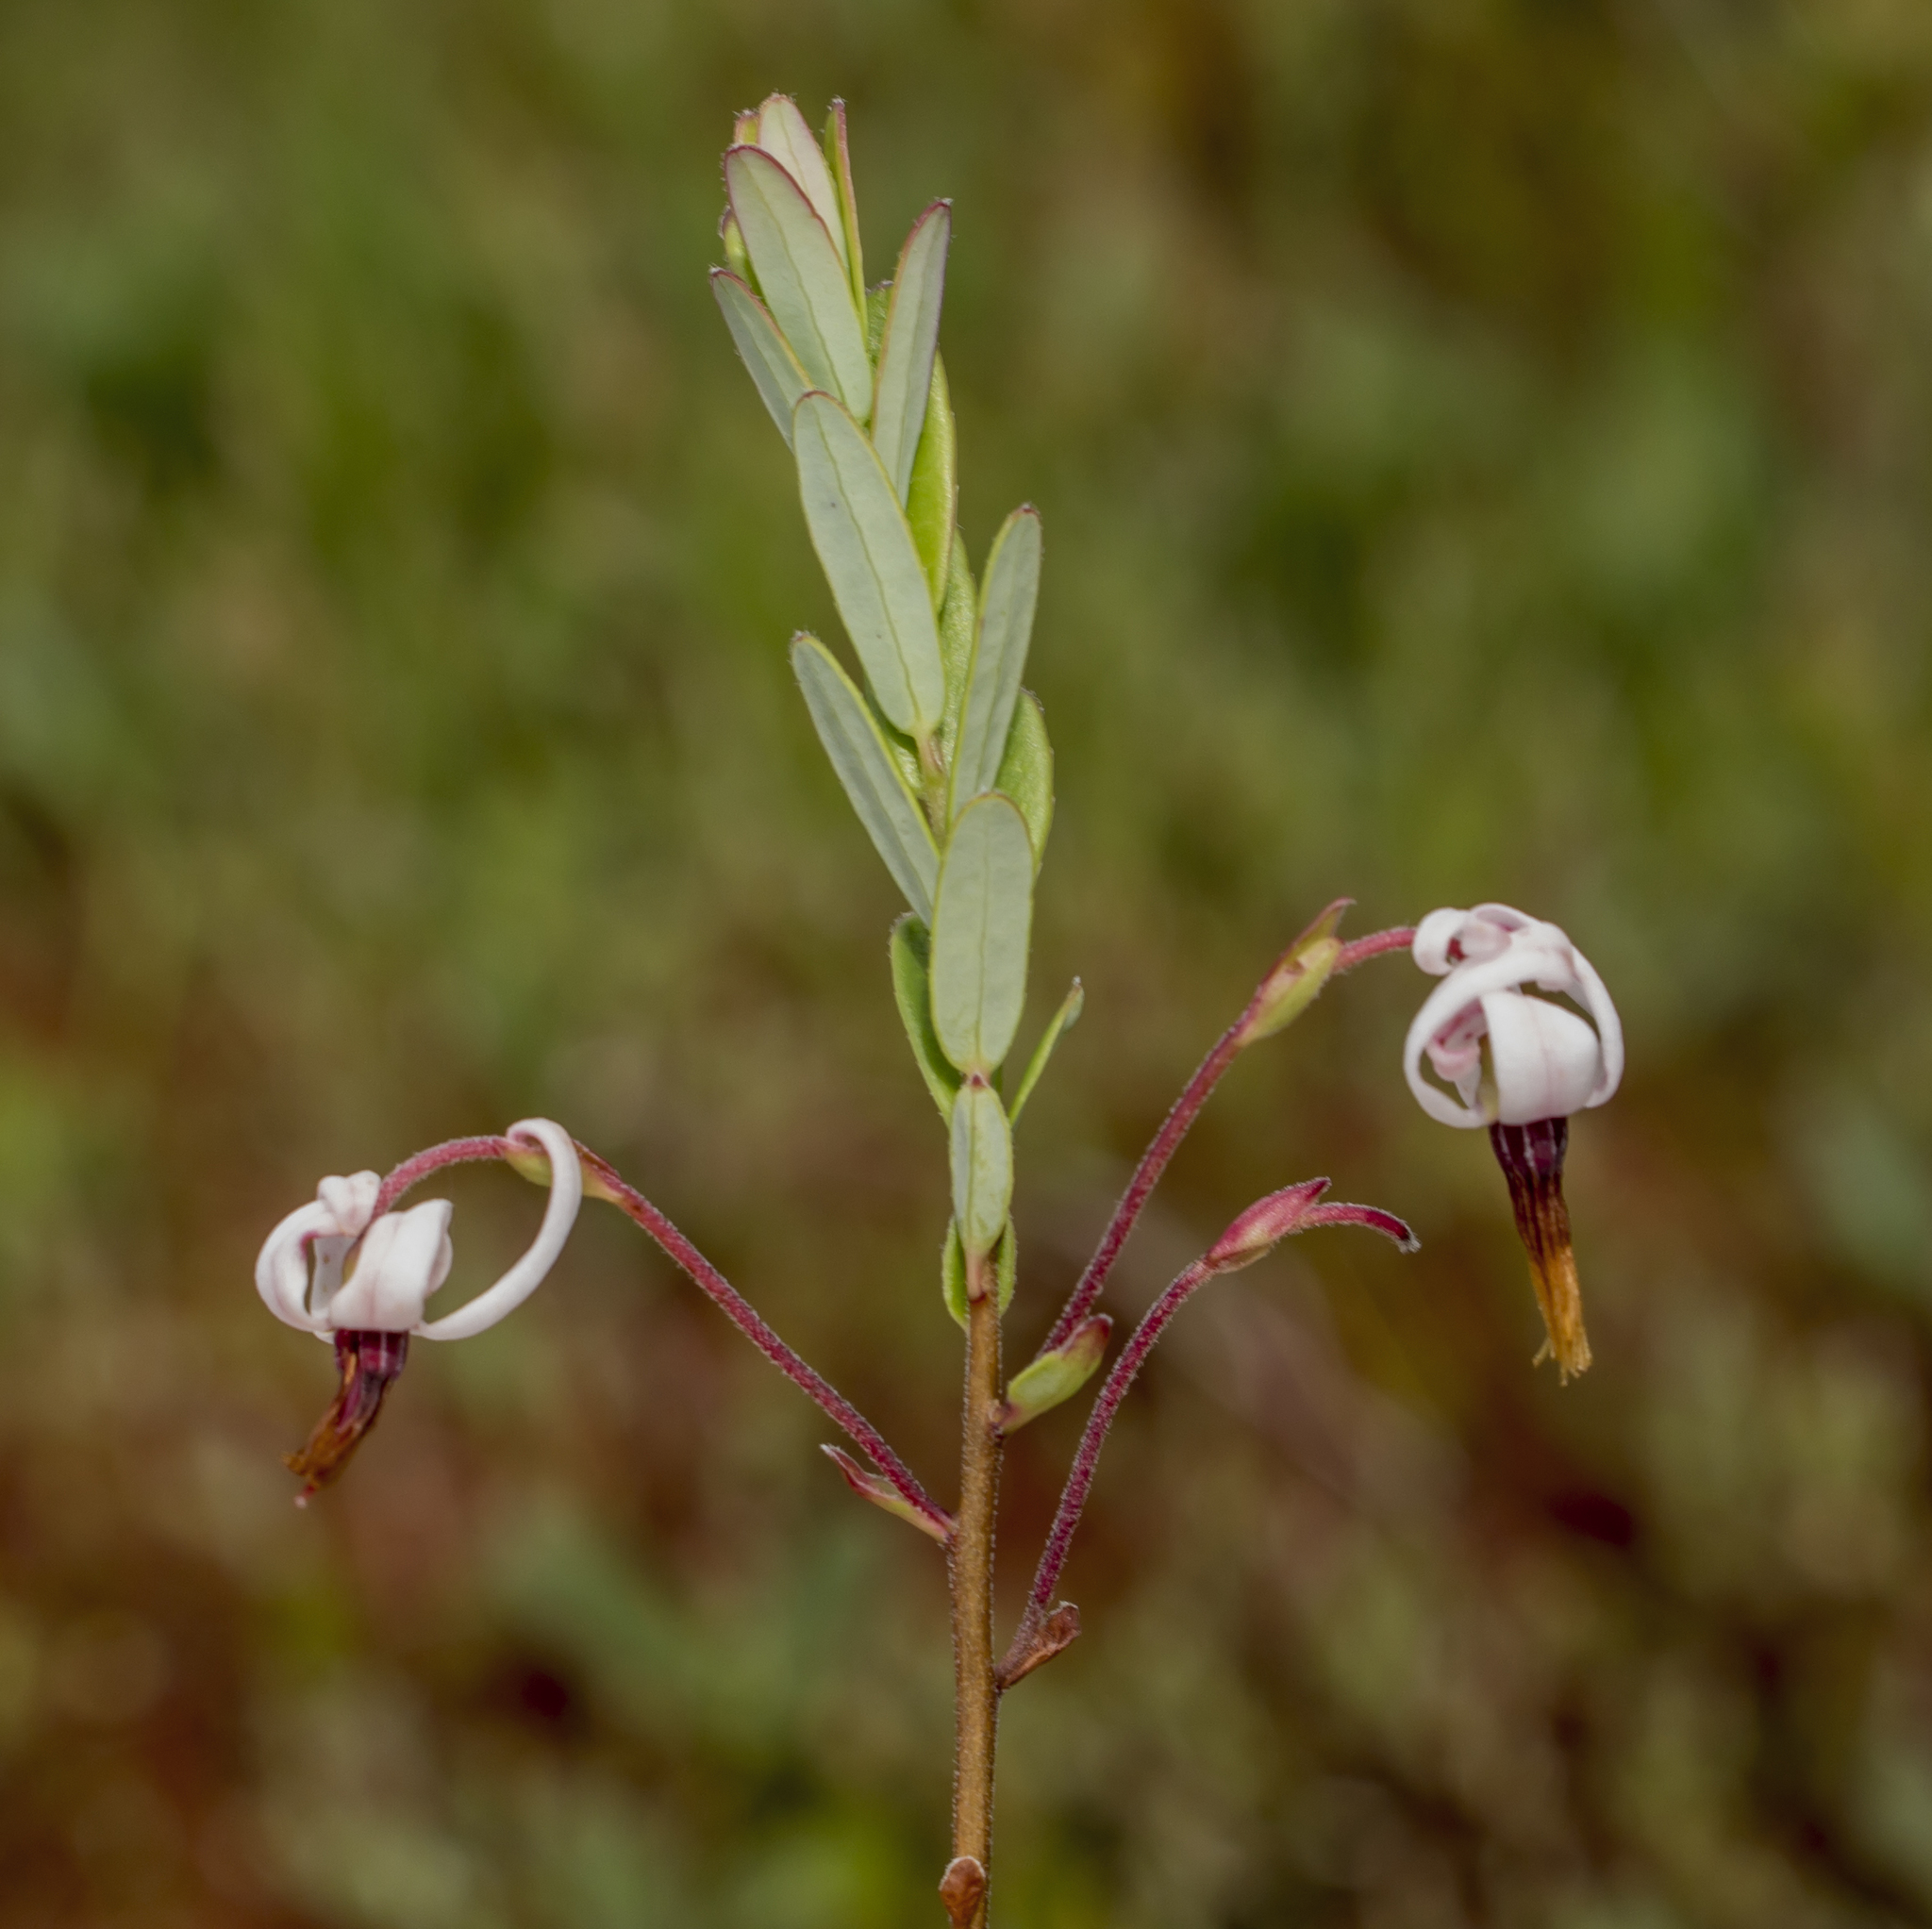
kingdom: Plantae
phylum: Tracheophyta
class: Magnoliopsida
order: Ericales
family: Ericaceae
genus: Vaccinium
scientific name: Vaccinium macrocarpon
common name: American cranberry
